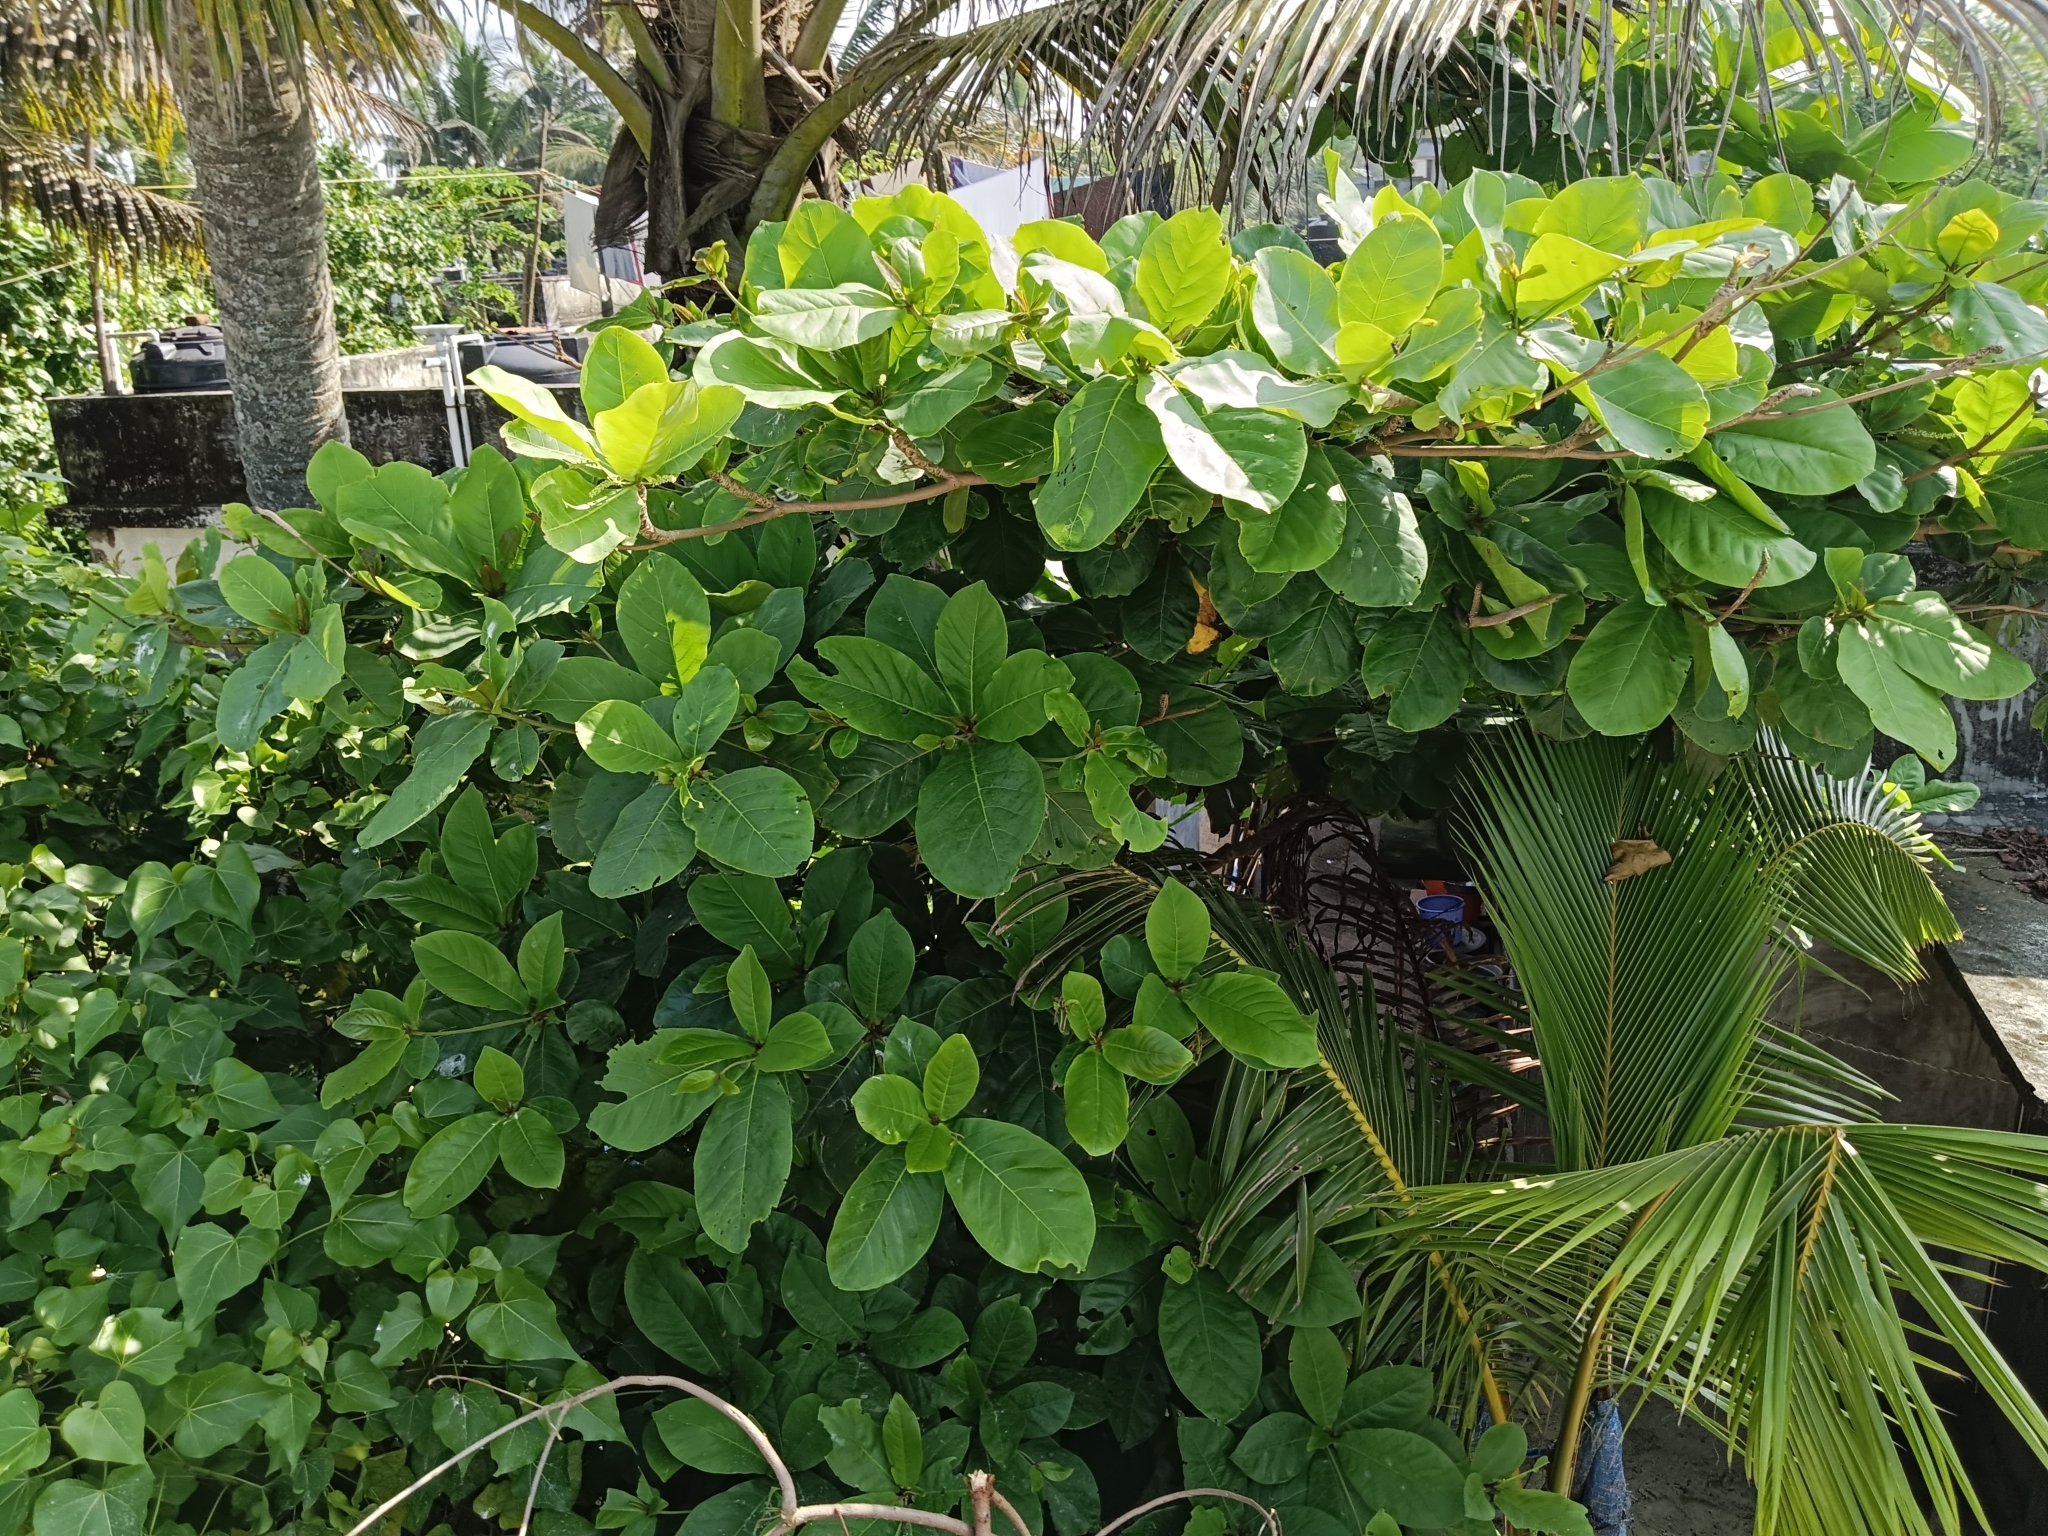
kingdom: Plantae
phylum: Tracheophyta
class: Magnoliopsida
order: Myrtales
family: Combretaceae
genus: Terminalia
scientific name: Terminalia catappa
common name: Tropical almond
